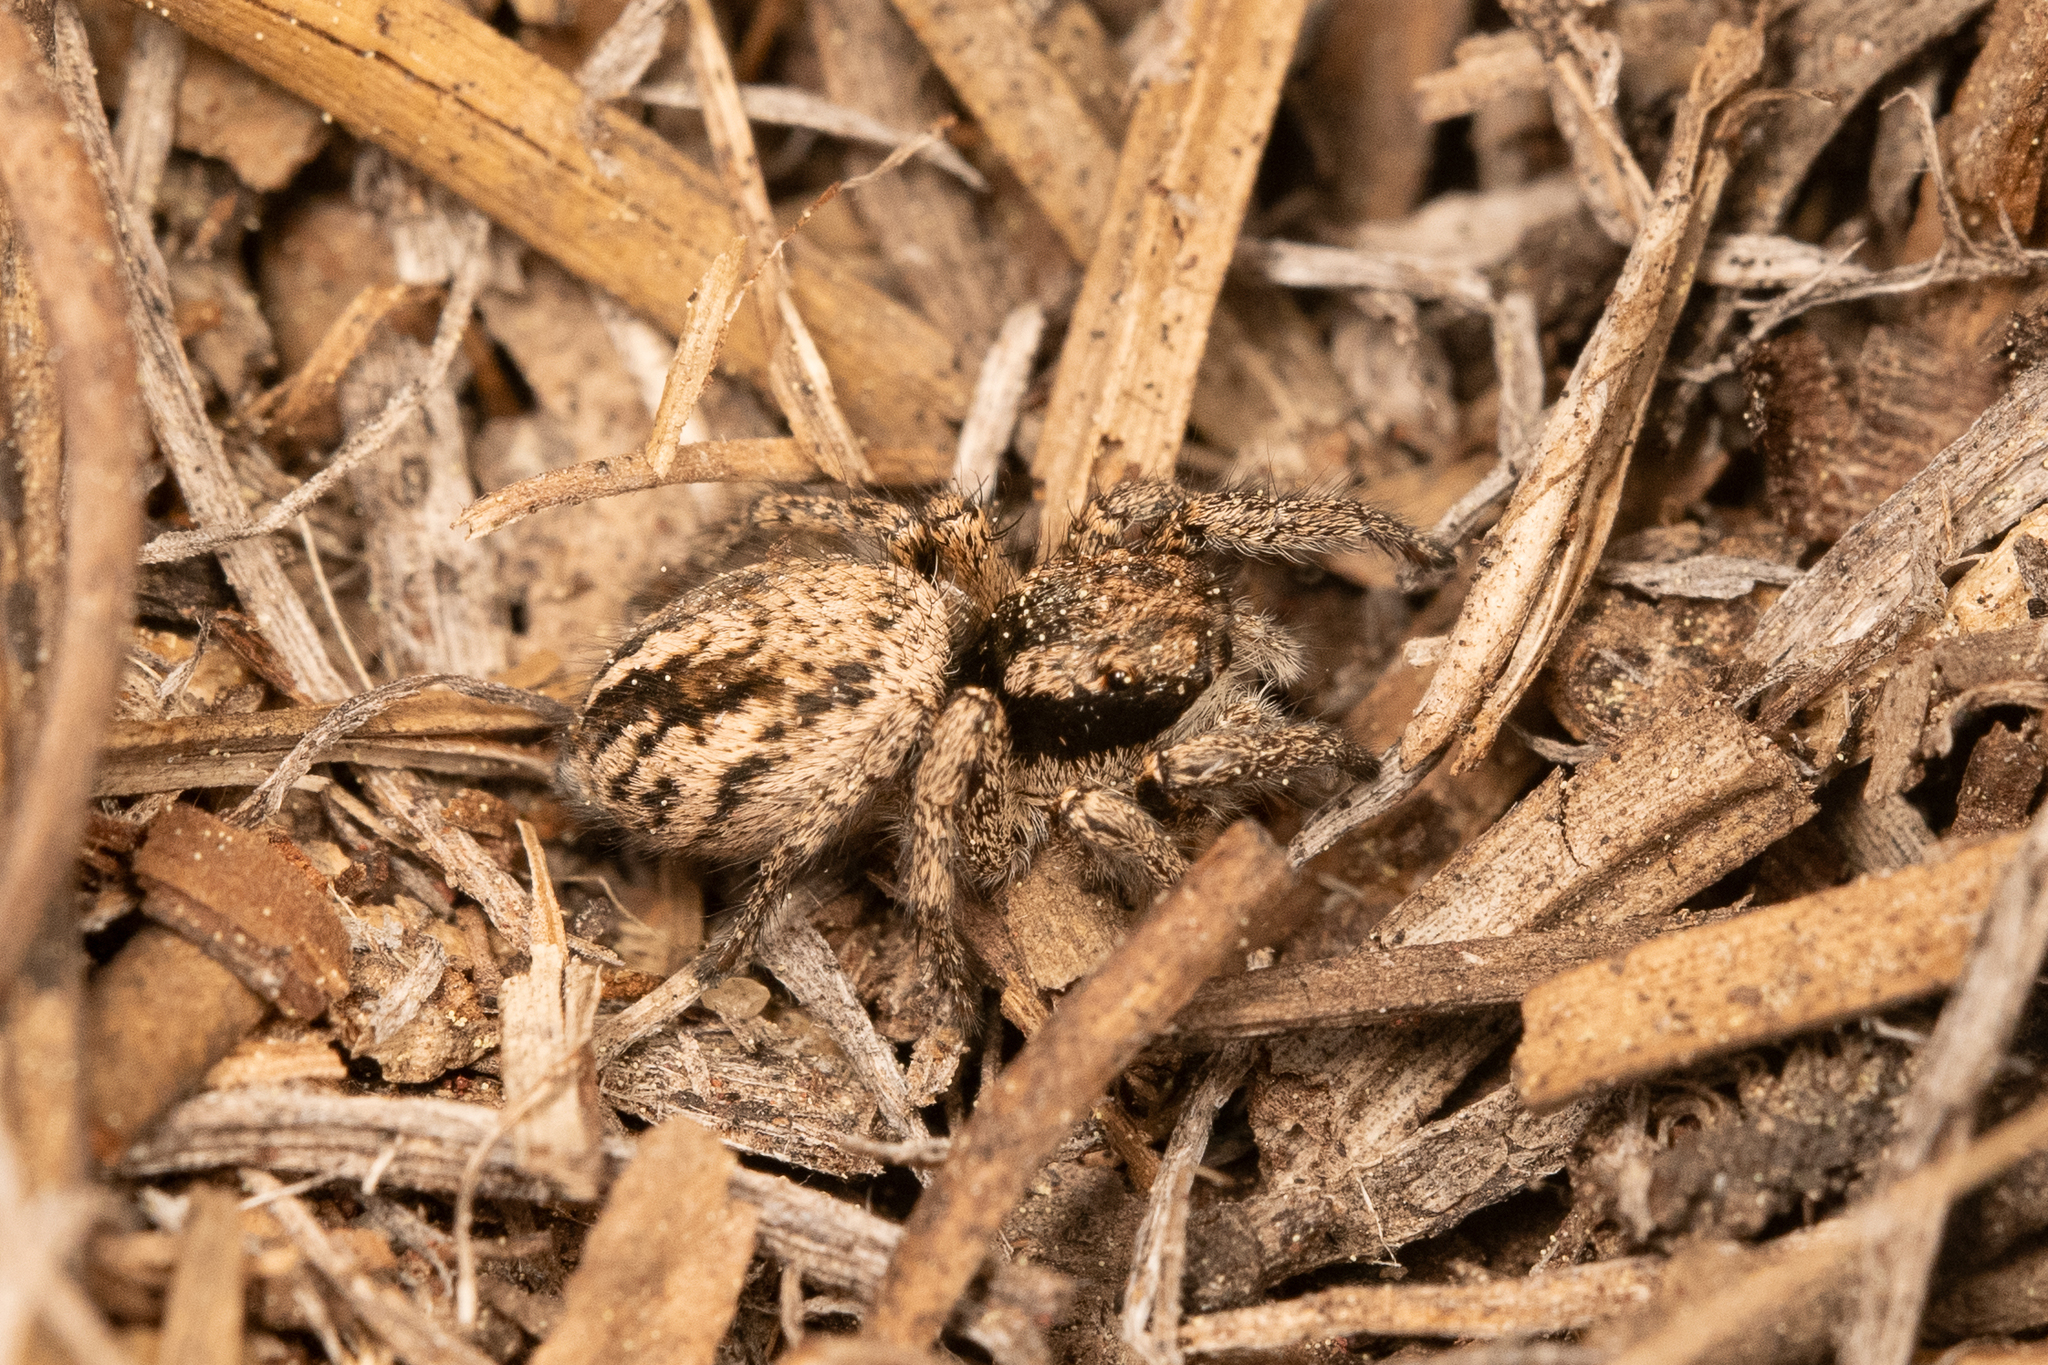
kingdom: Animalia
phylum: Arthropoda
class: Arachnida
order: Araneae
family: Salticidae
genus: Habronattus
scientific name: Habronattus americanus
